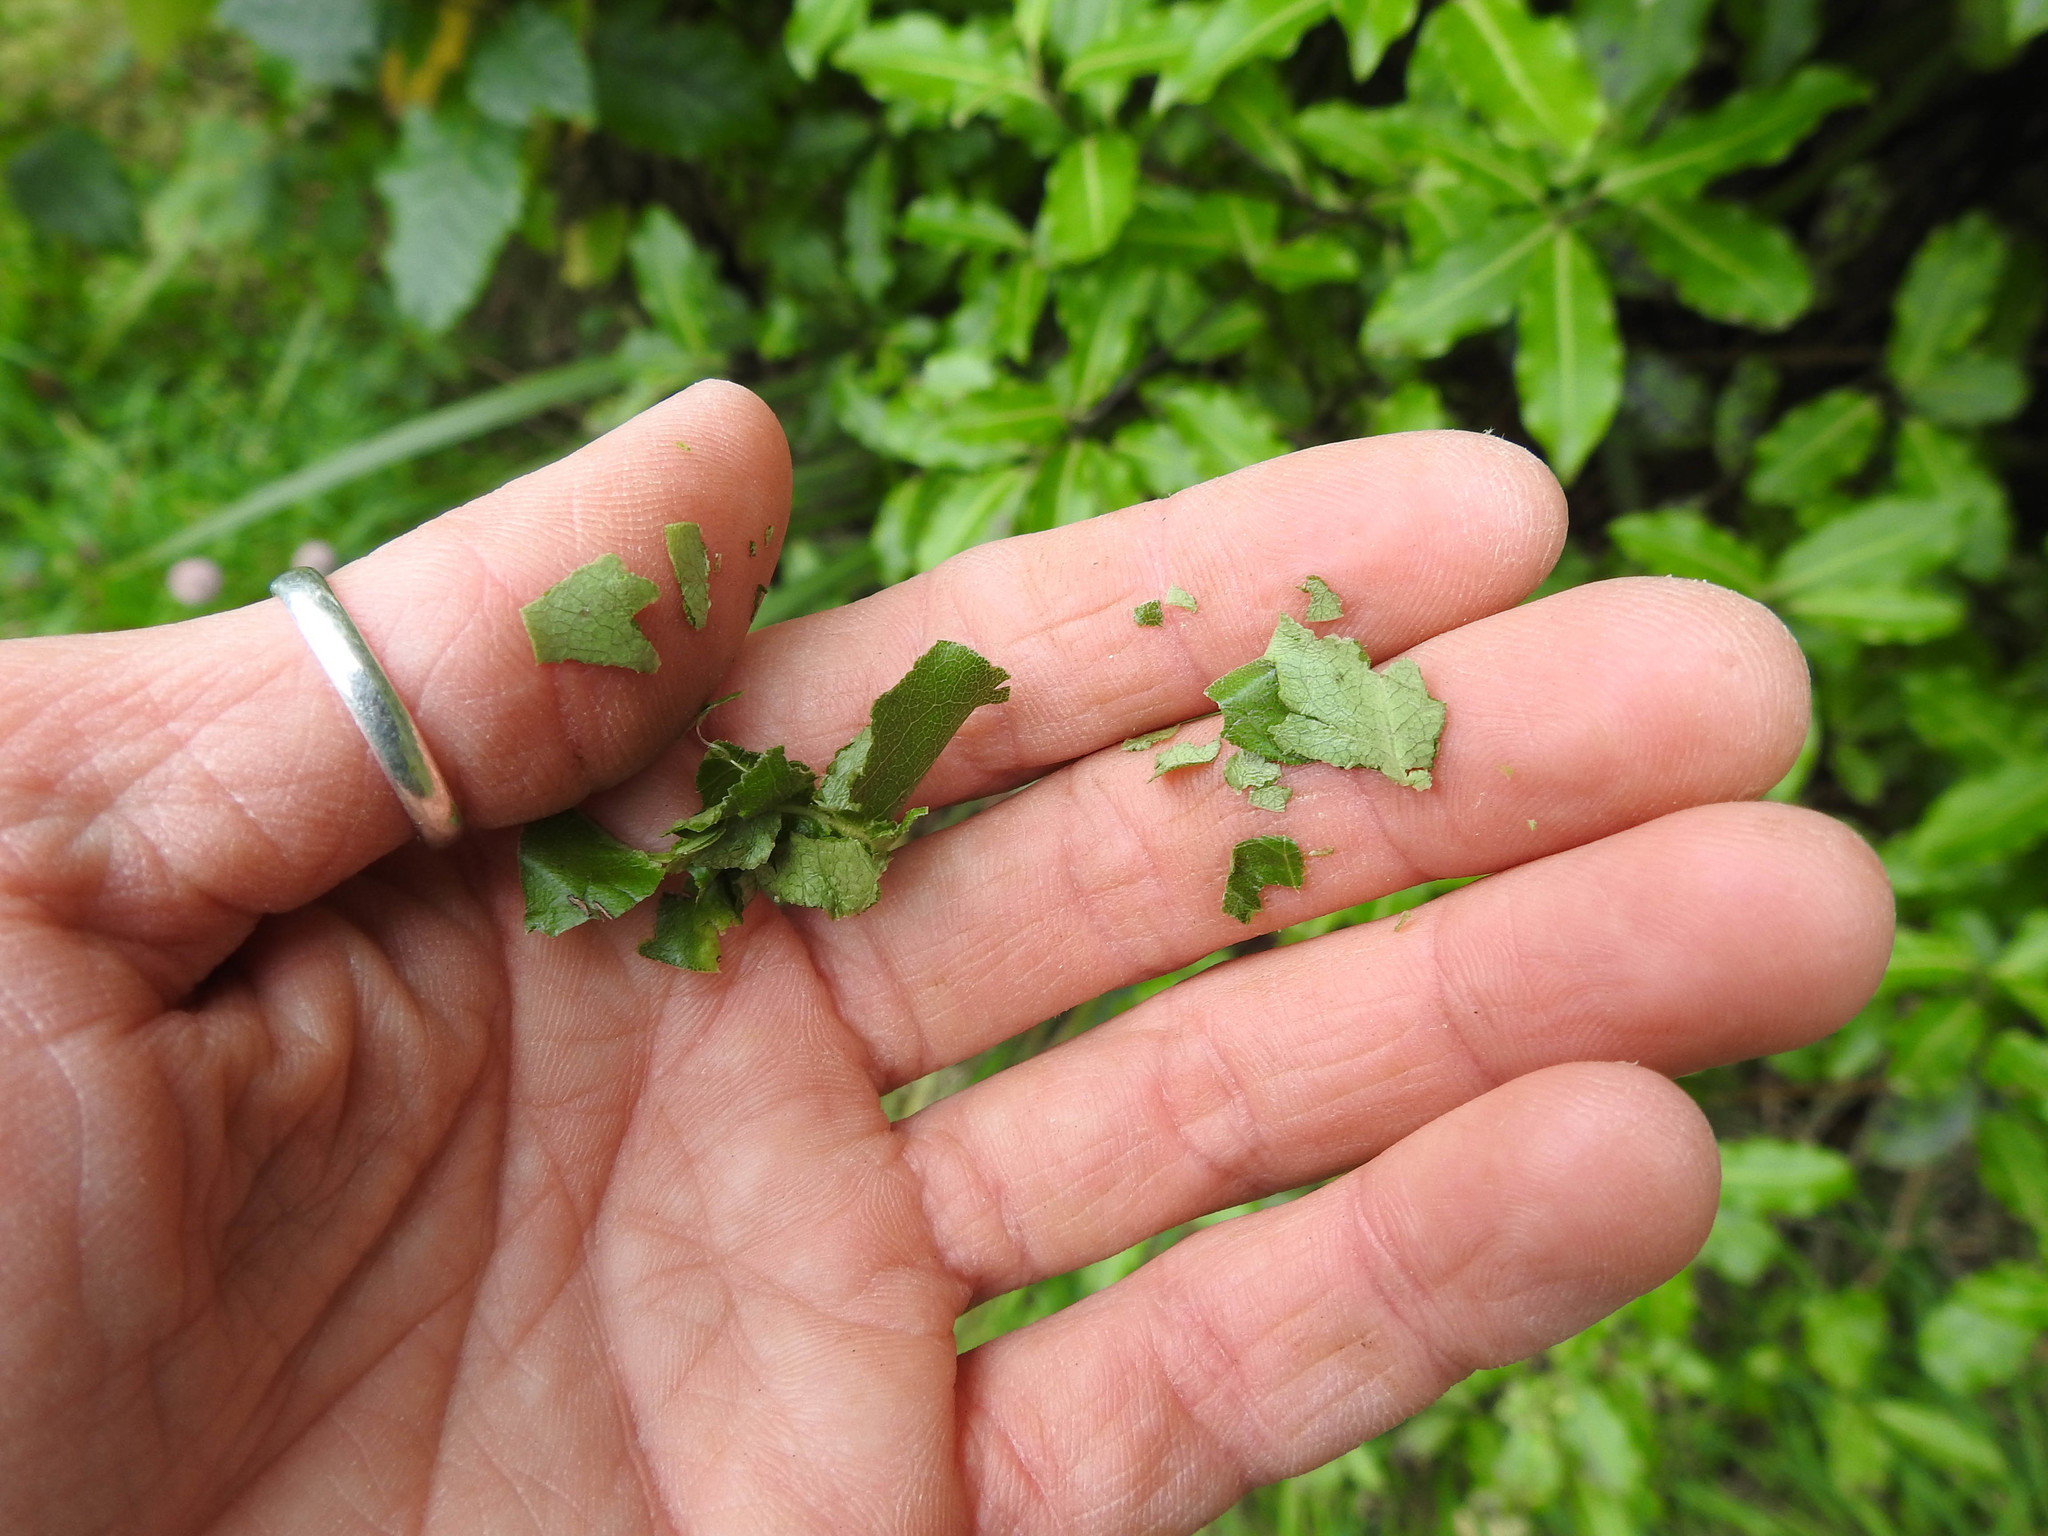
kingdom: Plantae
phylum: Tracheophyta
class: Magnoliopsida
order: Apiales
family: Pittosporaceae
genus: Pittosporum
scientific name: Pittosporum tenuifolium
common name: Kohuhu
